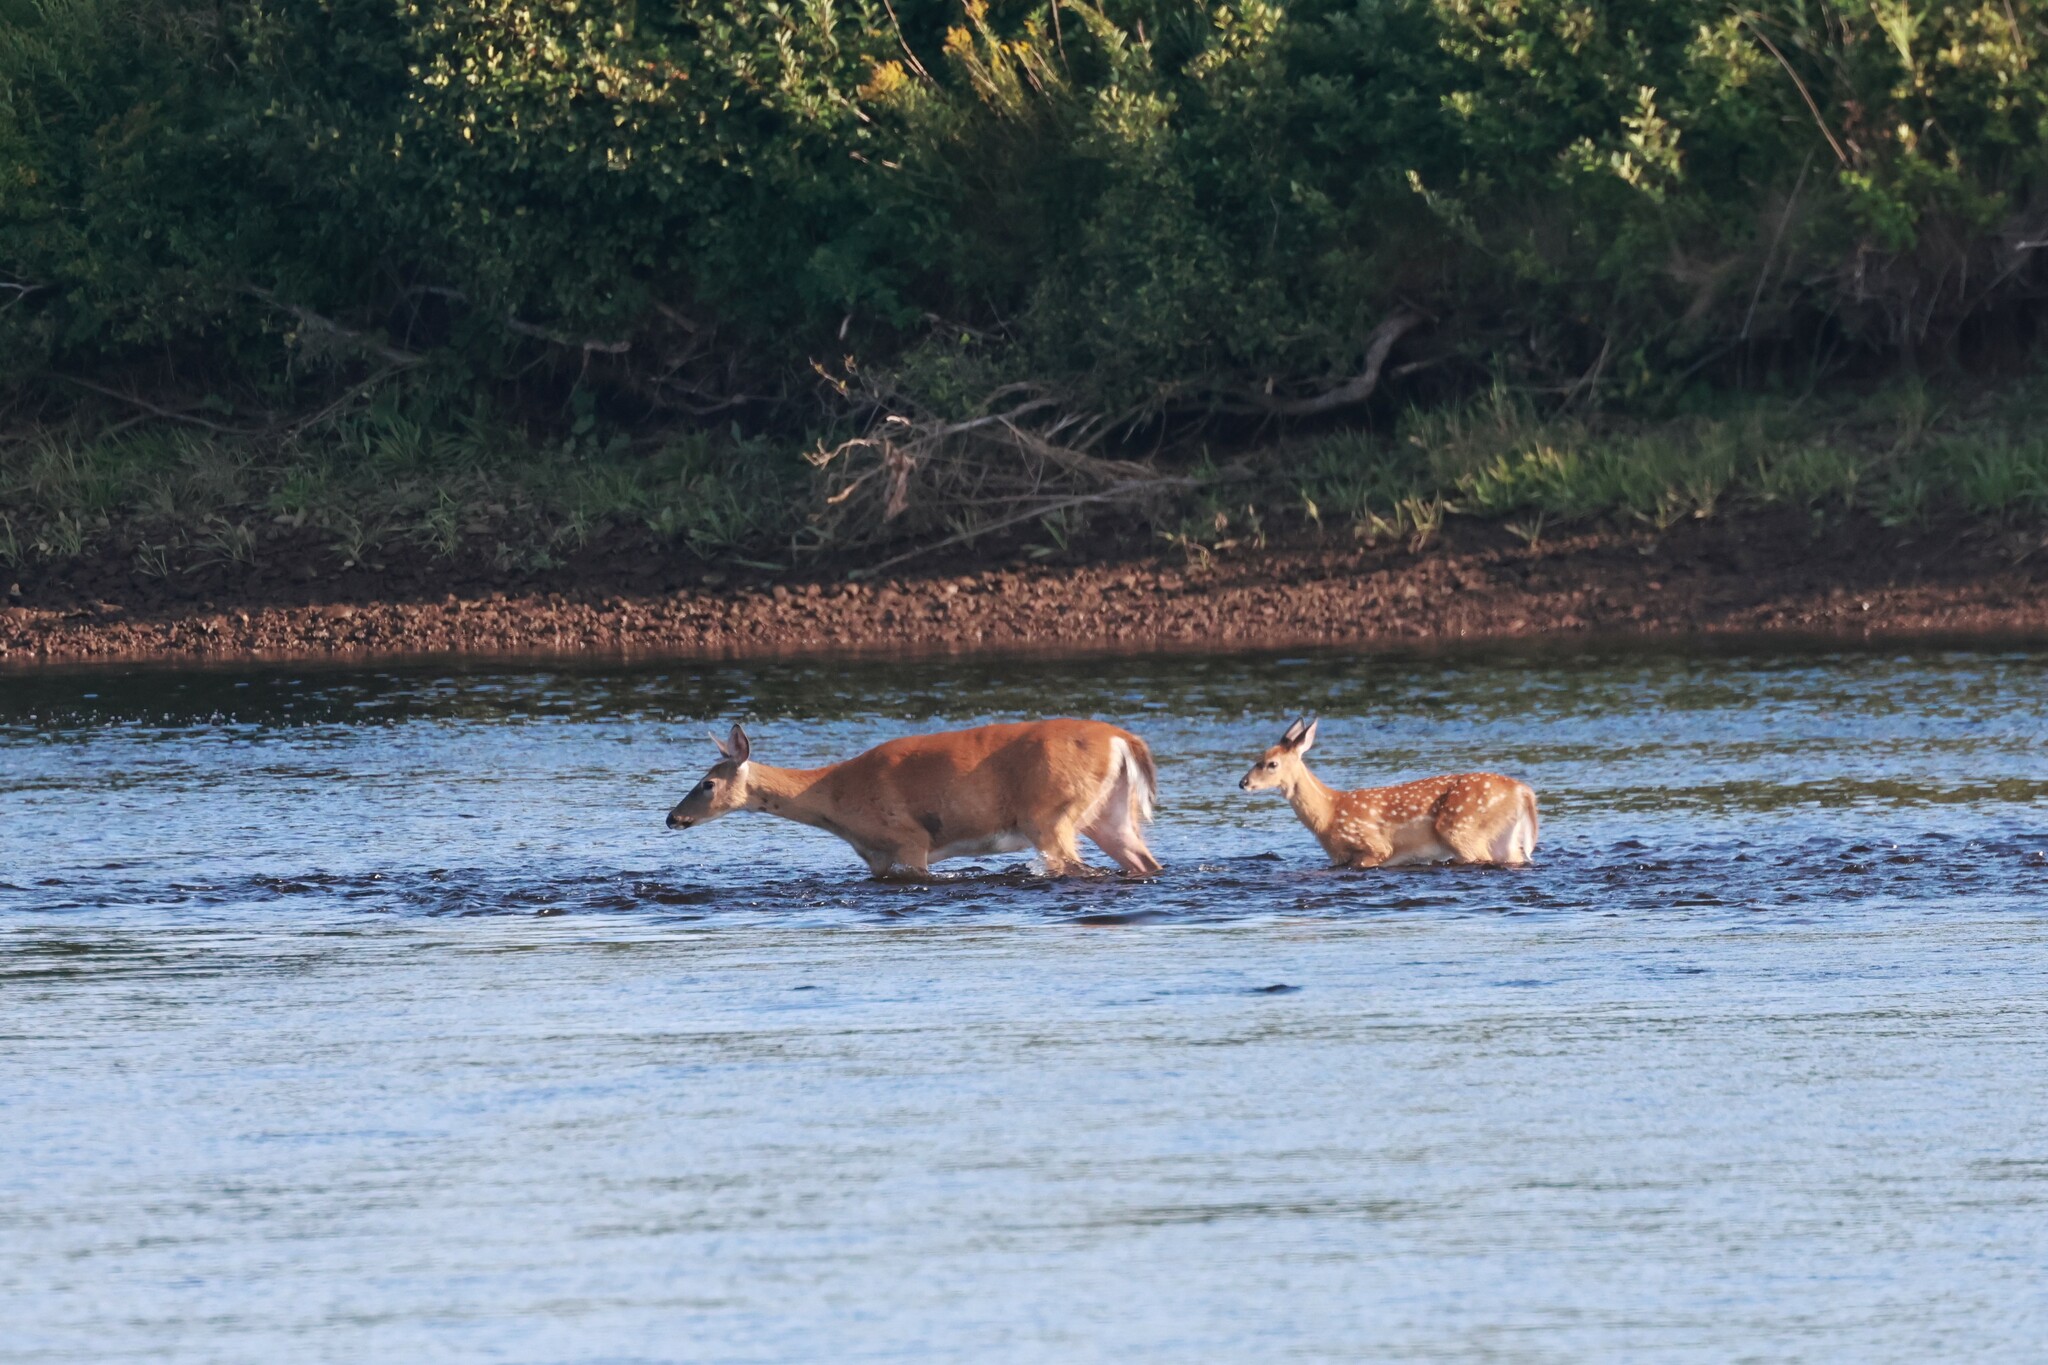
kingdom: Animalia
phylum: Chordata
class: Mammalia
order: Artiodactyla
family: Cervidae
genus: Odocoileus
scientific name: Odocoileus virginianus
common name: White-tailed deer
